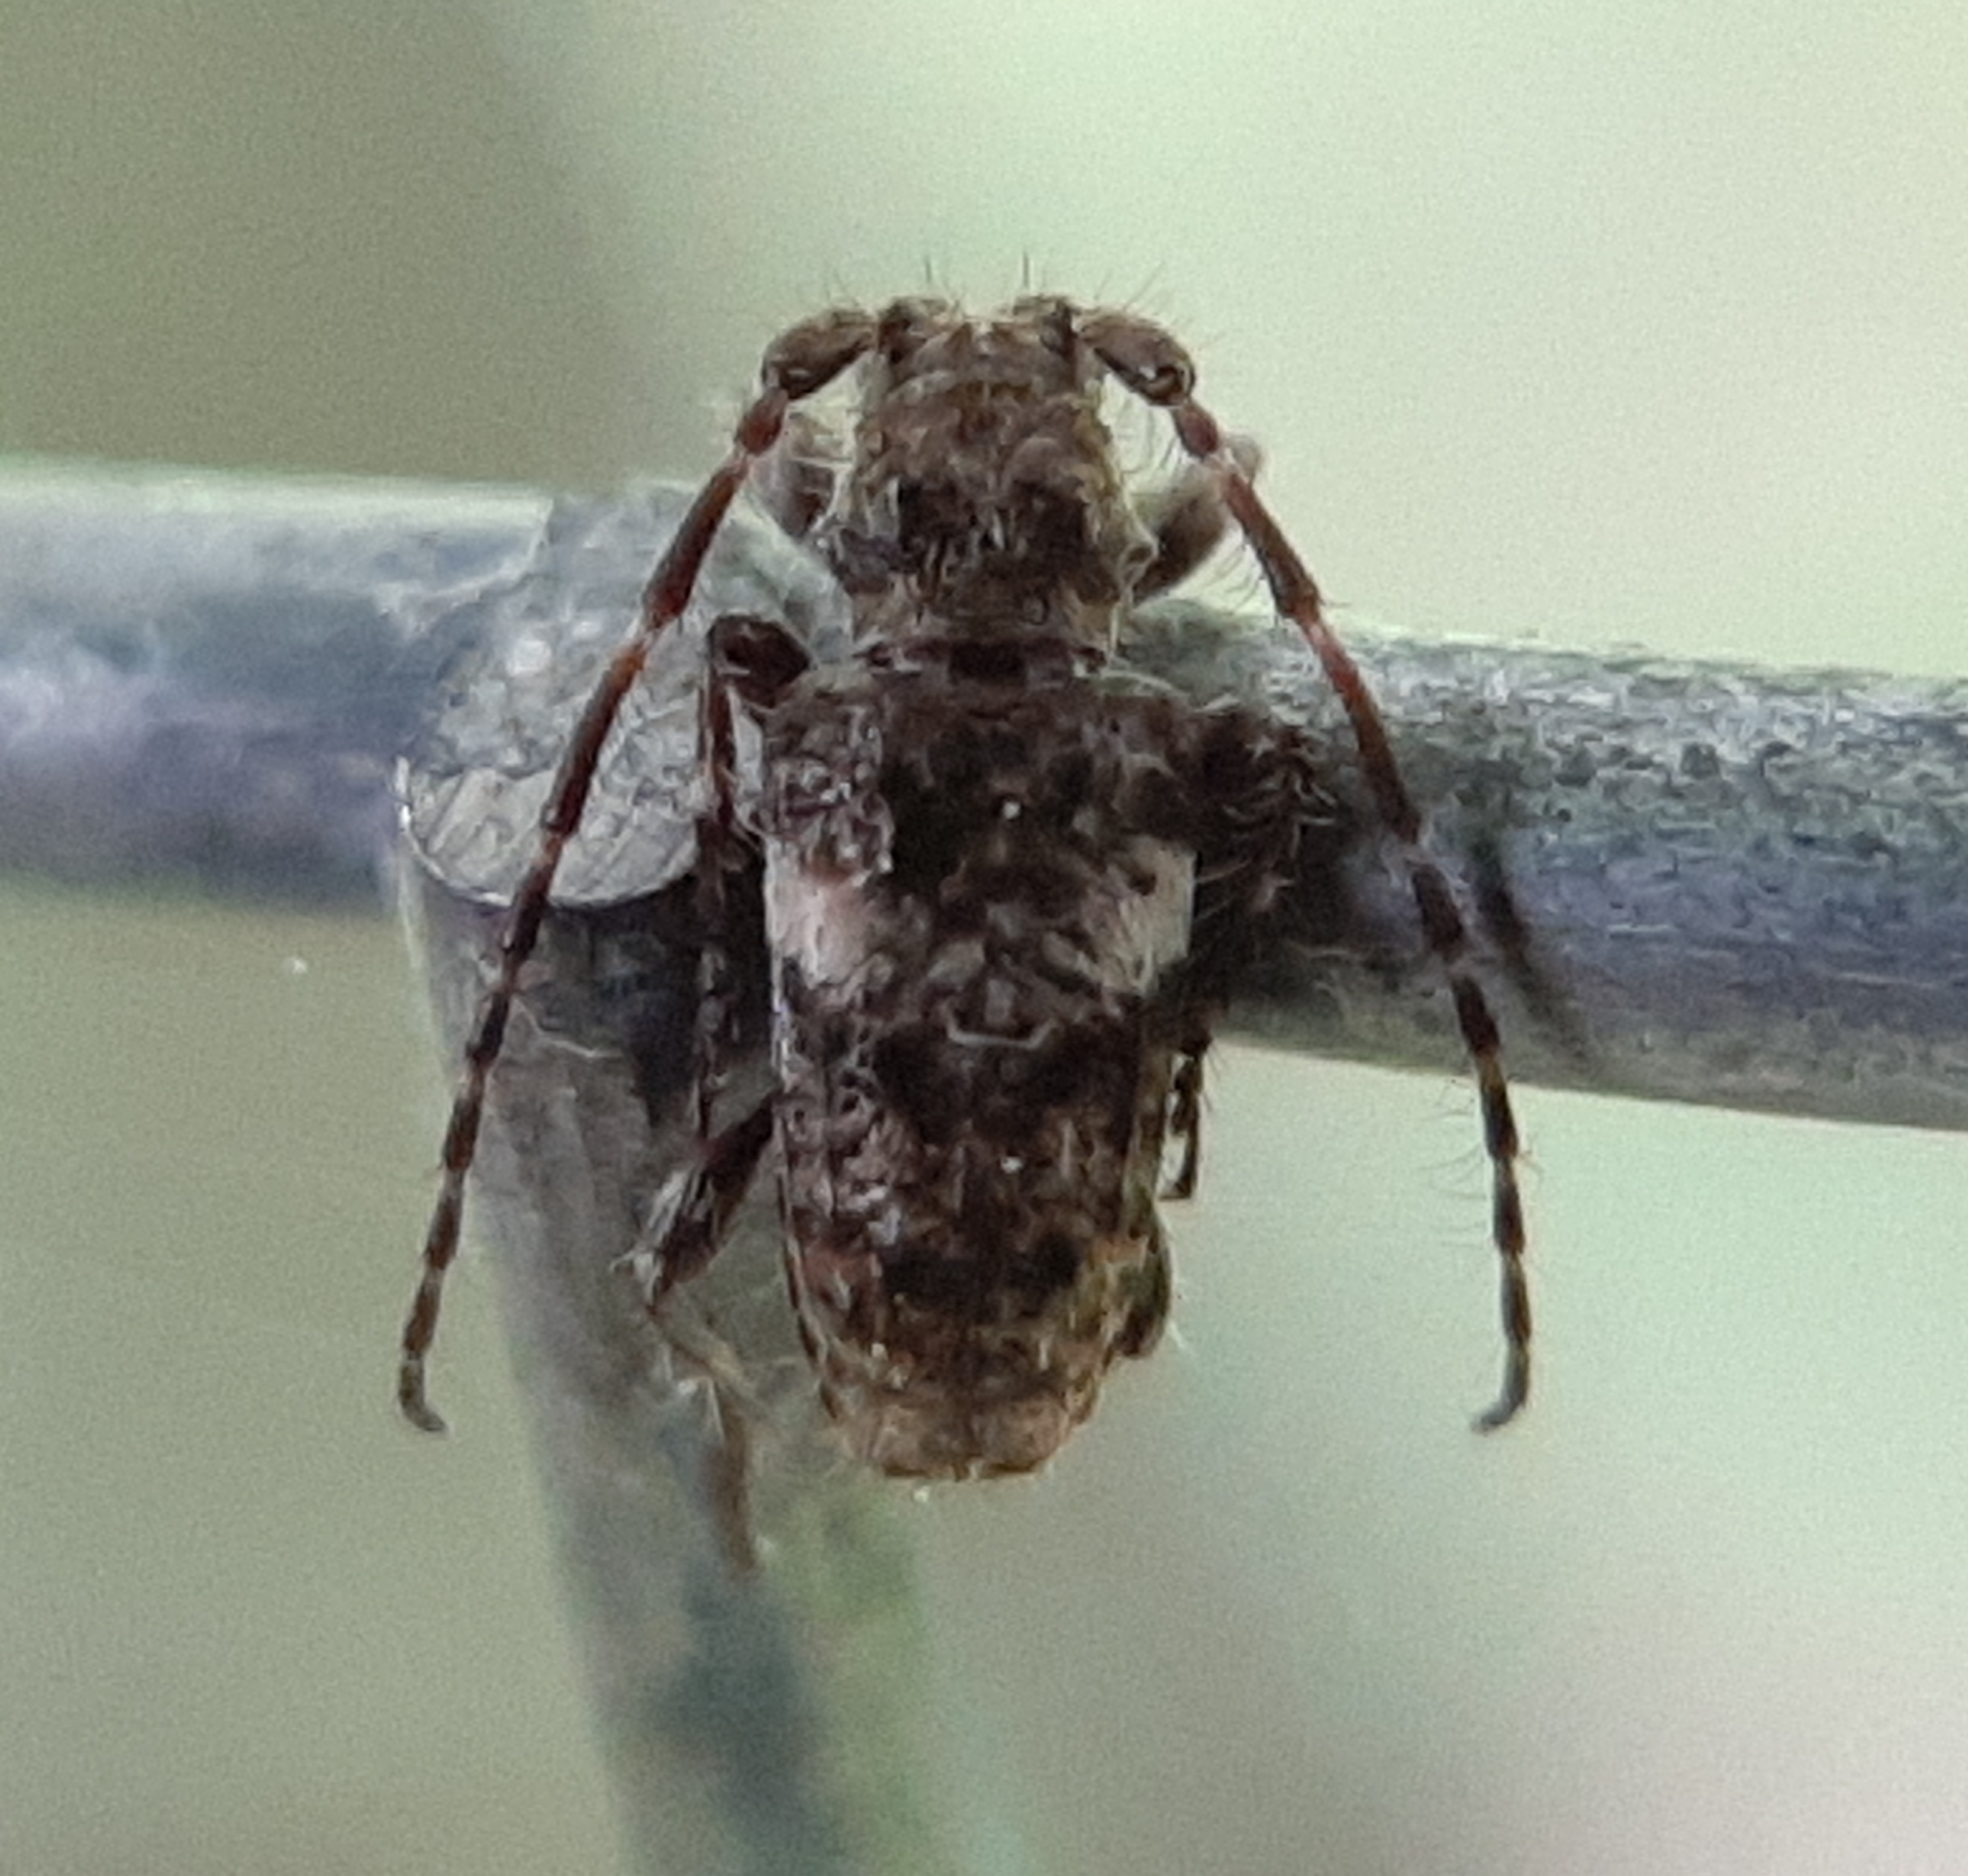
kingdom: Animalia
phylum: Arthropoda
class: Insecta
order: Coleoptera
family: Cerambycidae
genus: Pogonocherus
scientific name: Pogonocherus penicillatus
